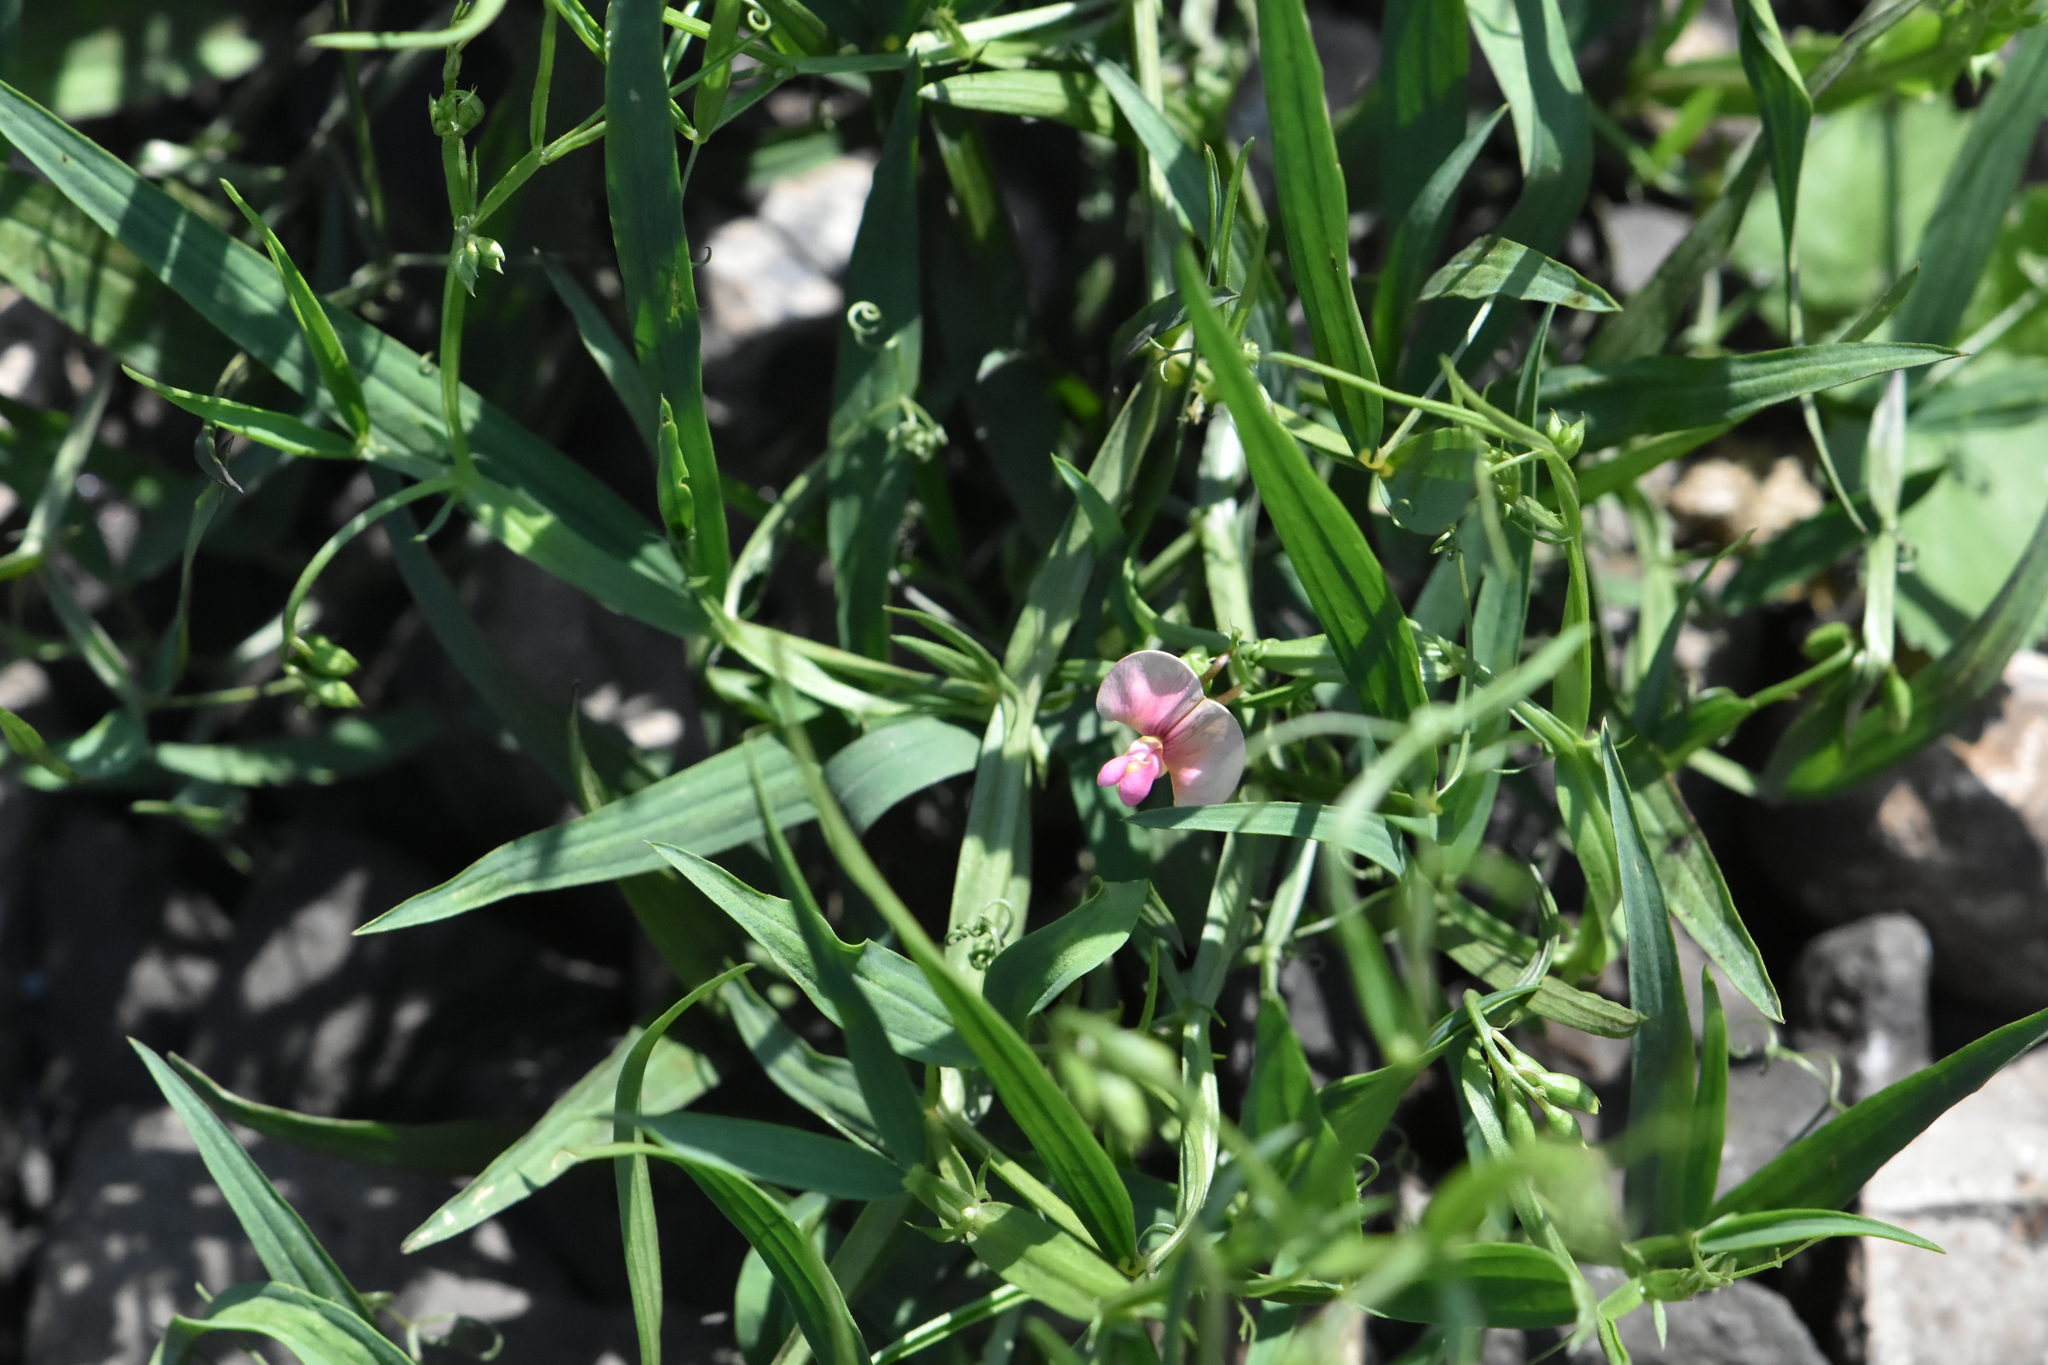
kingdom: Plantae
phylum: Tracheophyta
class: Magnoliopsida
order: Fabales
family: Fabaceae
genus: Lathyrus
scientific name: Lathyrus sylvestris
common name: Flat pea
